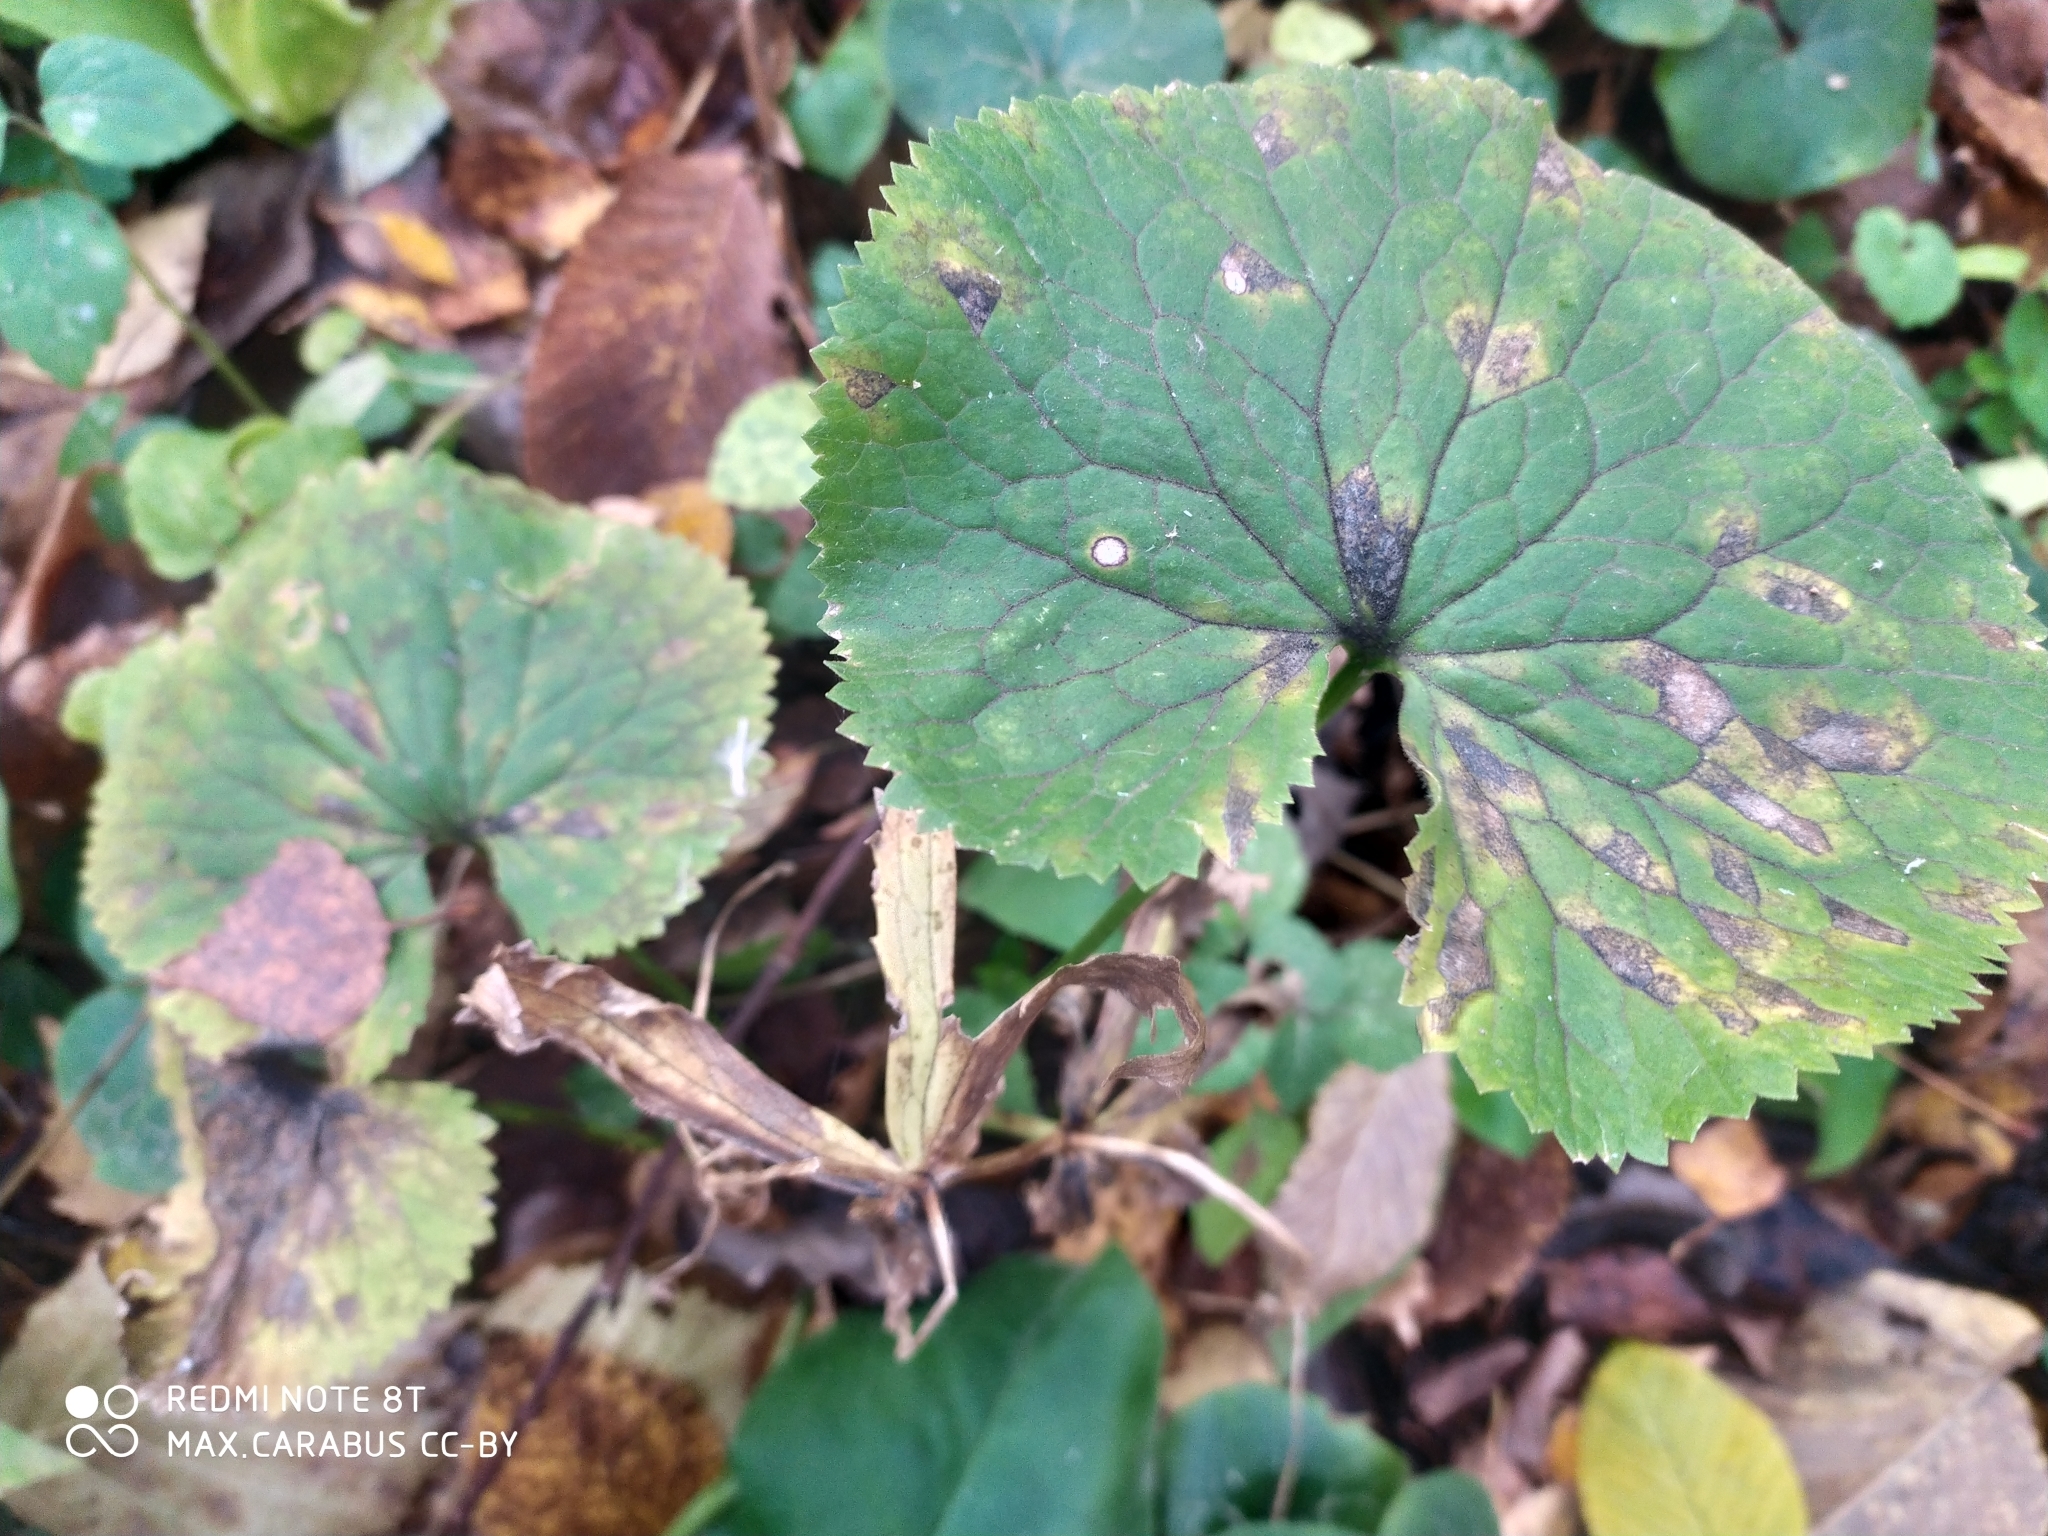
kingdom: Plantae
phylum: Tracheophyta
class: Magnoliopsida
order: Ranunculales
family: Ranunculaceae
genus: Ranunculus
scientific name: Ranunculus cassubicus
